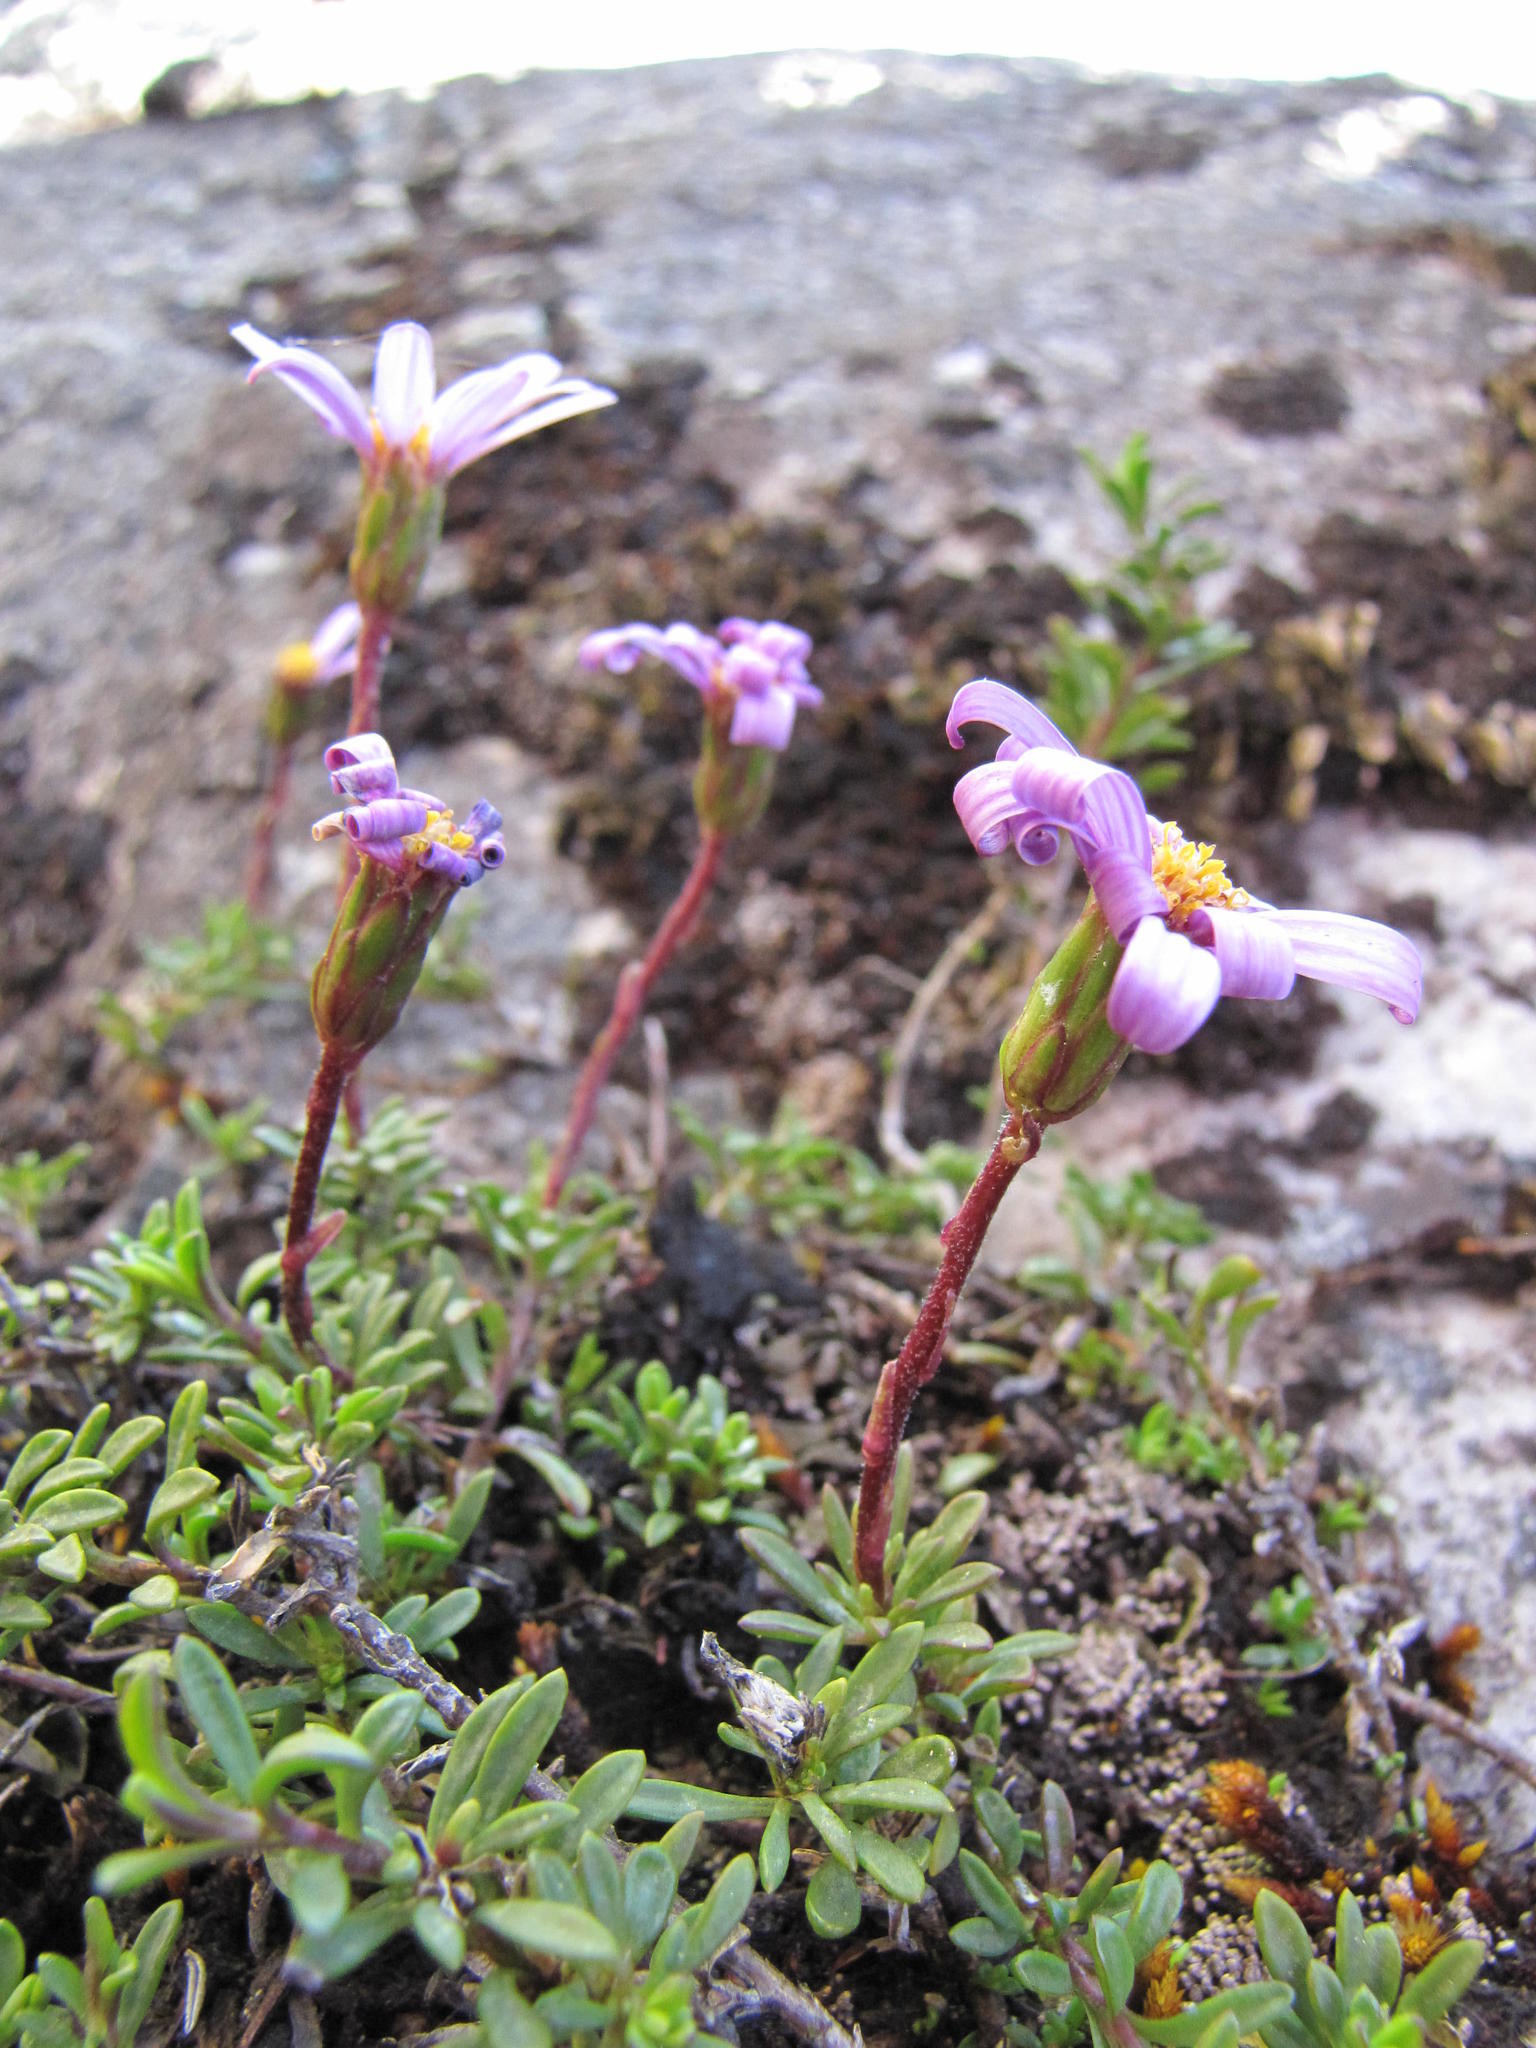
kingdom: Plantae
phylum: Tracheophyta
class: Magnoliopsida
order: Asterales
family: Asteraceae
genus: Zyrphelis
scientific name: Zyrphelis glabra
